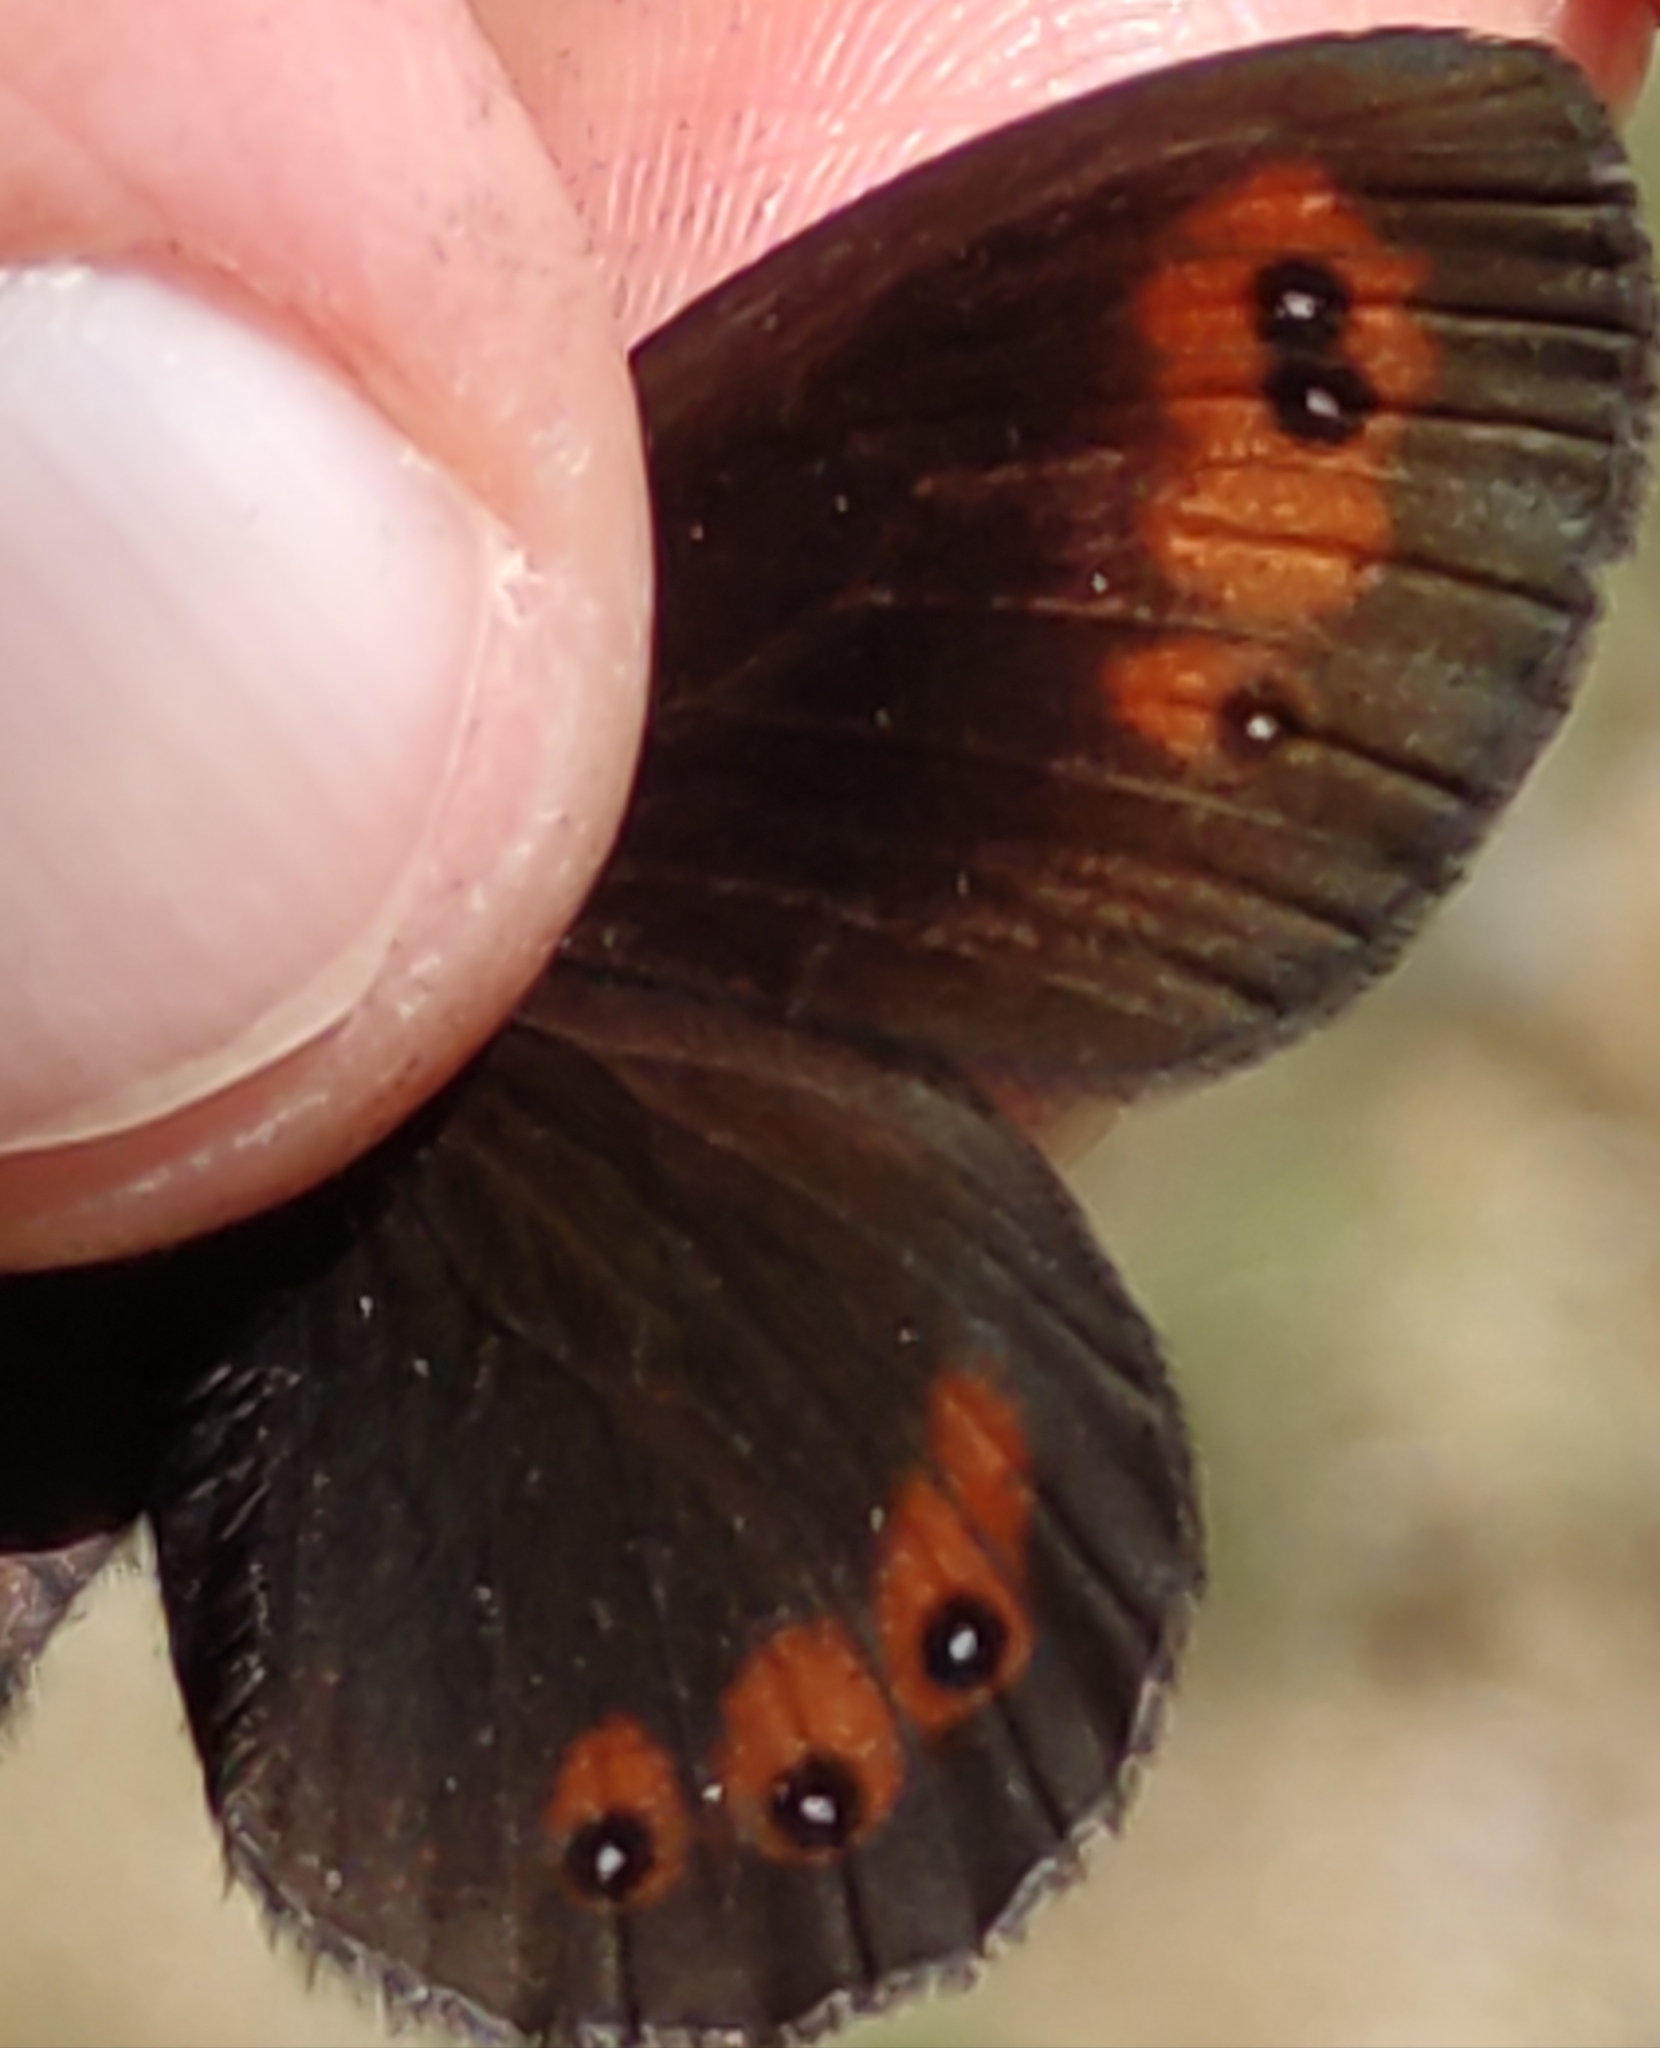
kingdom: Animalia
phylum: Arthropoda
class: Insecta
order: Lepidoptera
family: Nymphalidae
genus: Erebia
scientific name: Erebia meolans
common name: Piedmont ringlet
